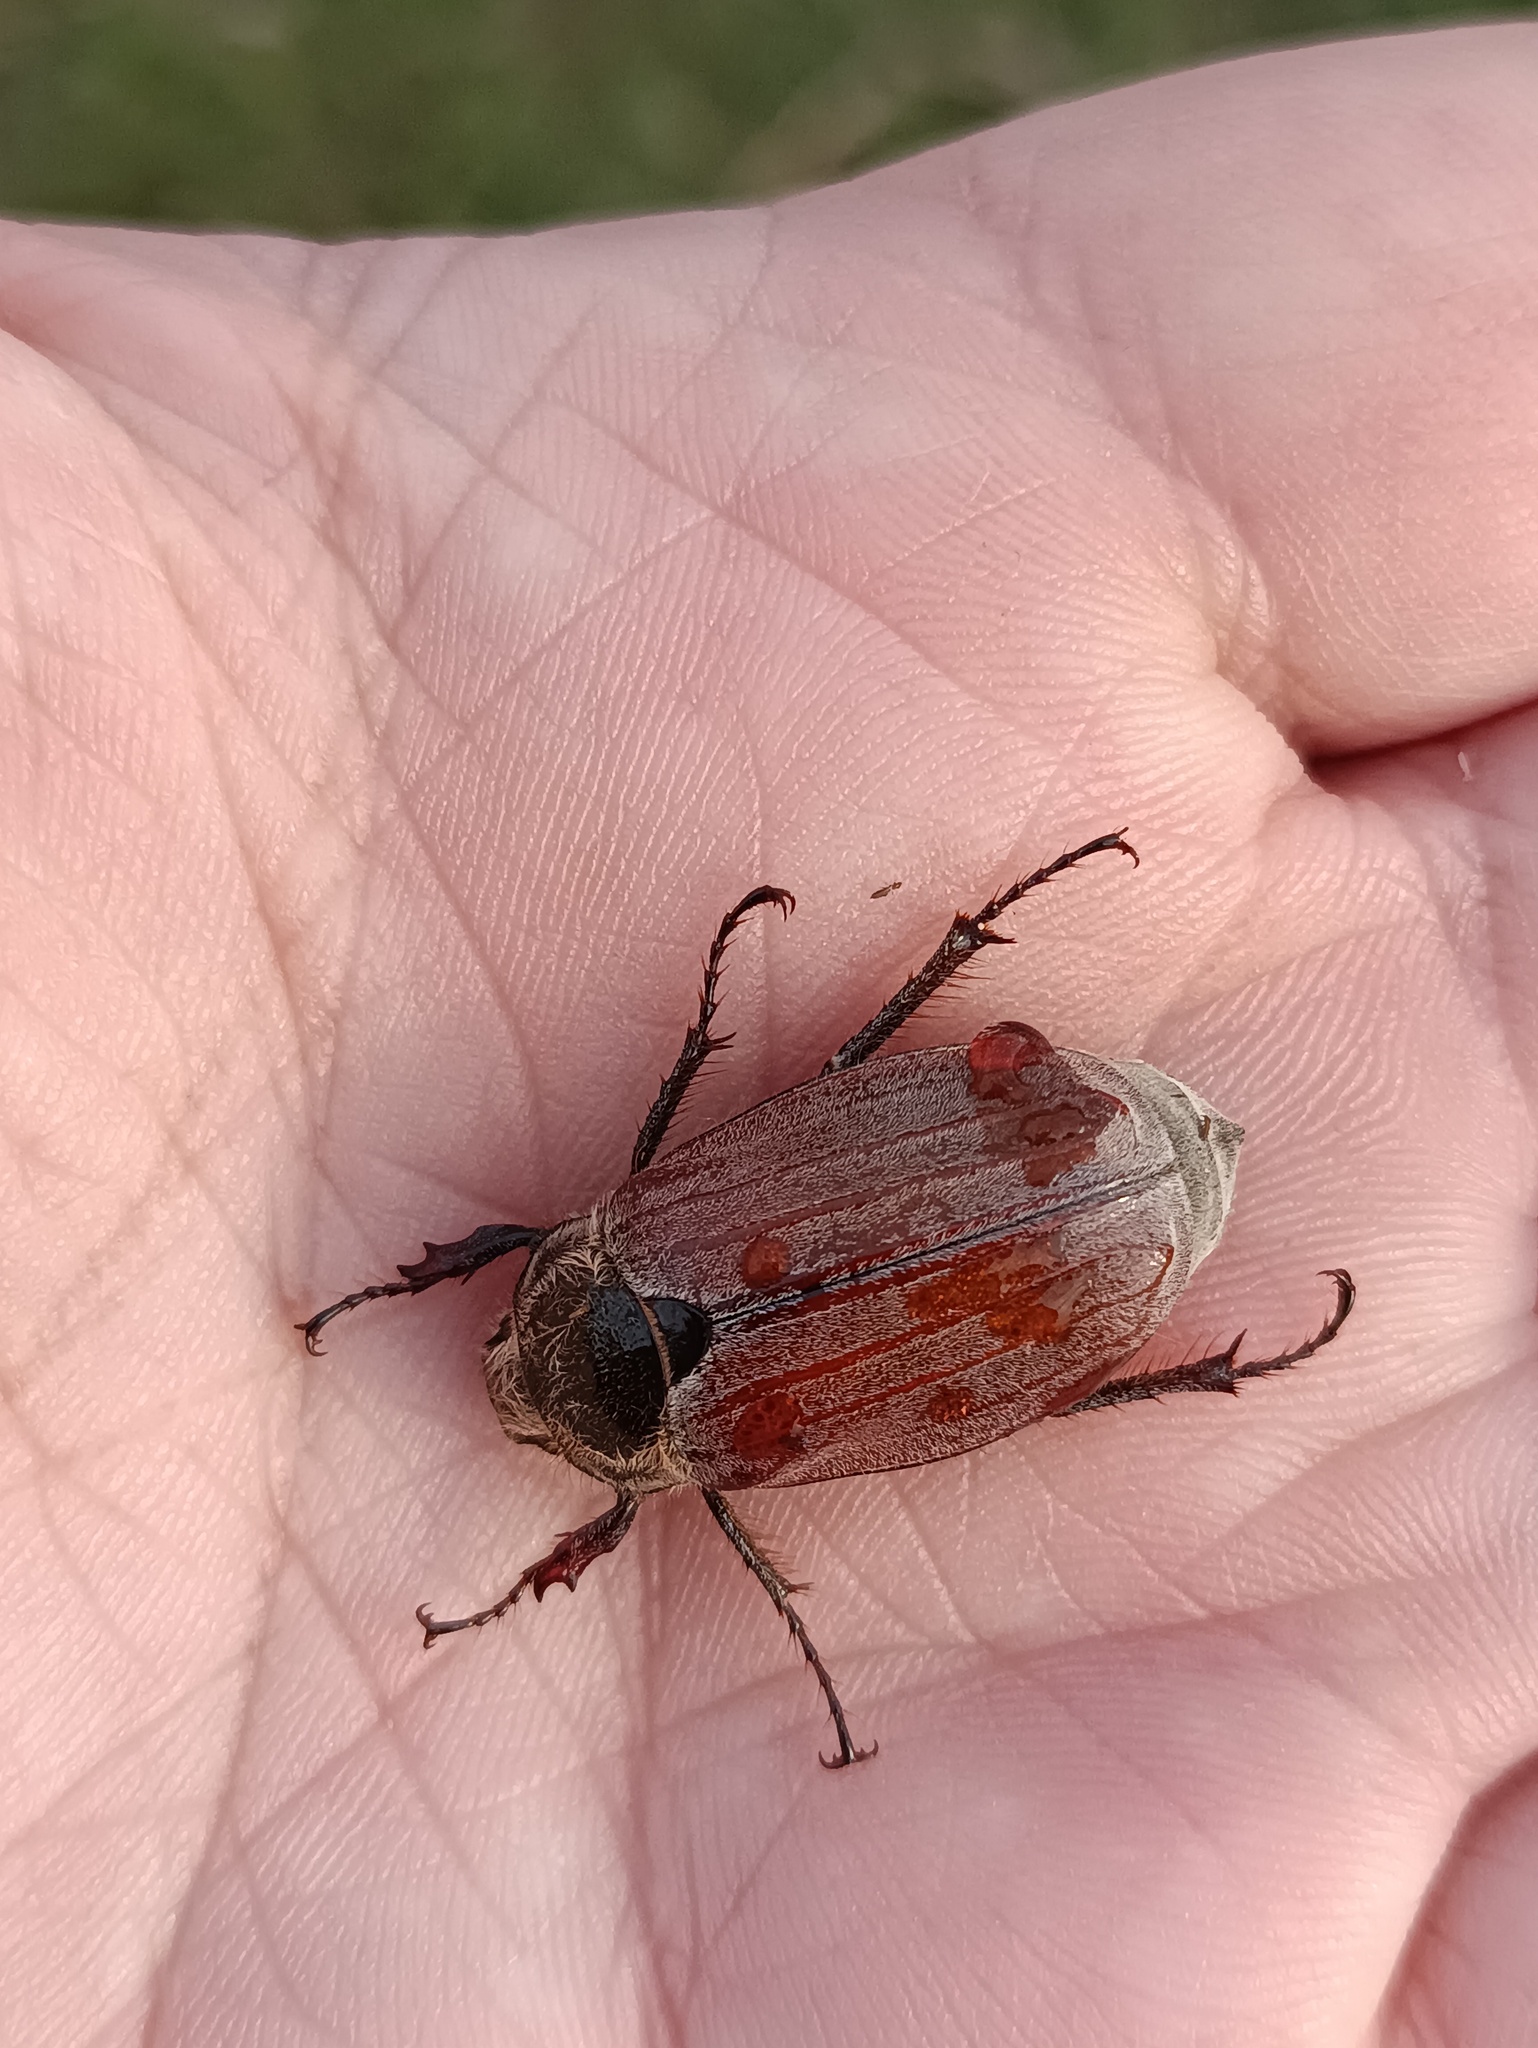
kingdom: Animalia
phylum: Arthropoda
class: Insecta
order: Coleoptera
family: Scarabaeidae
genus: Melolontha
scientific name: Melolontha hippocastani
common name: Chestnut cockchafer
